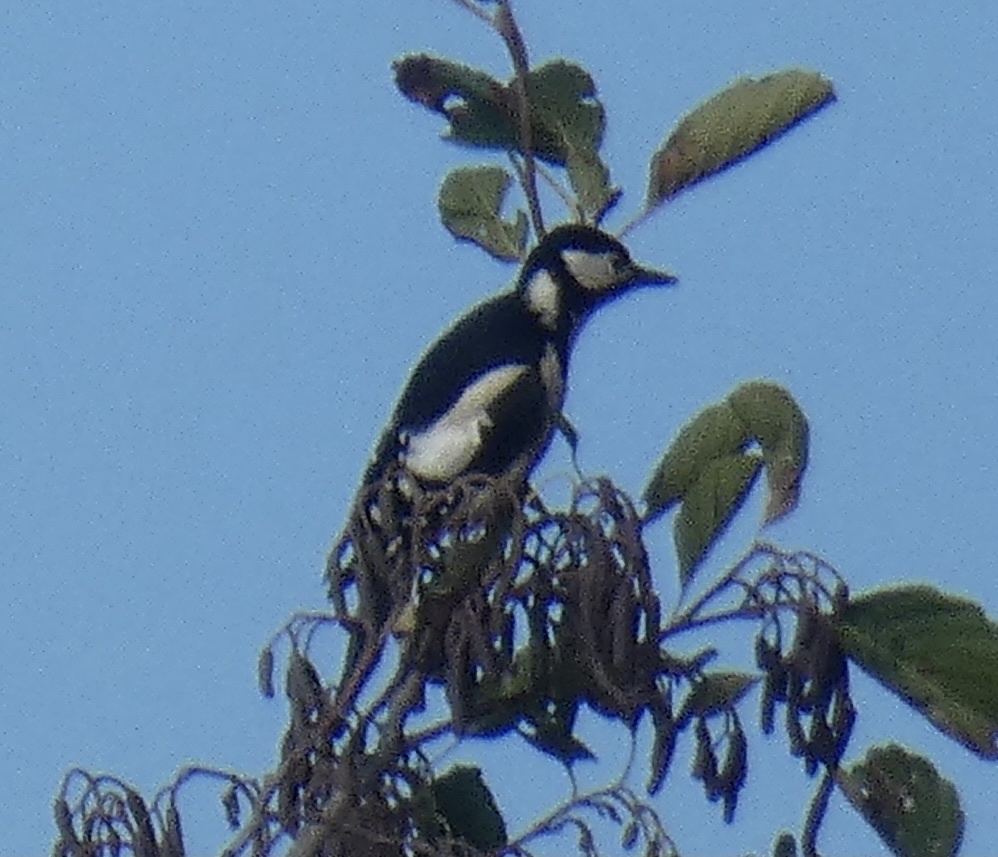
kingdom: Animalia
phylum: Chordata
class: Aves
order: Piciformes
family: Picidae
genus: Dendrocopos
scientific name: Dendrocopos major
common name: Great spotted woodpecker
